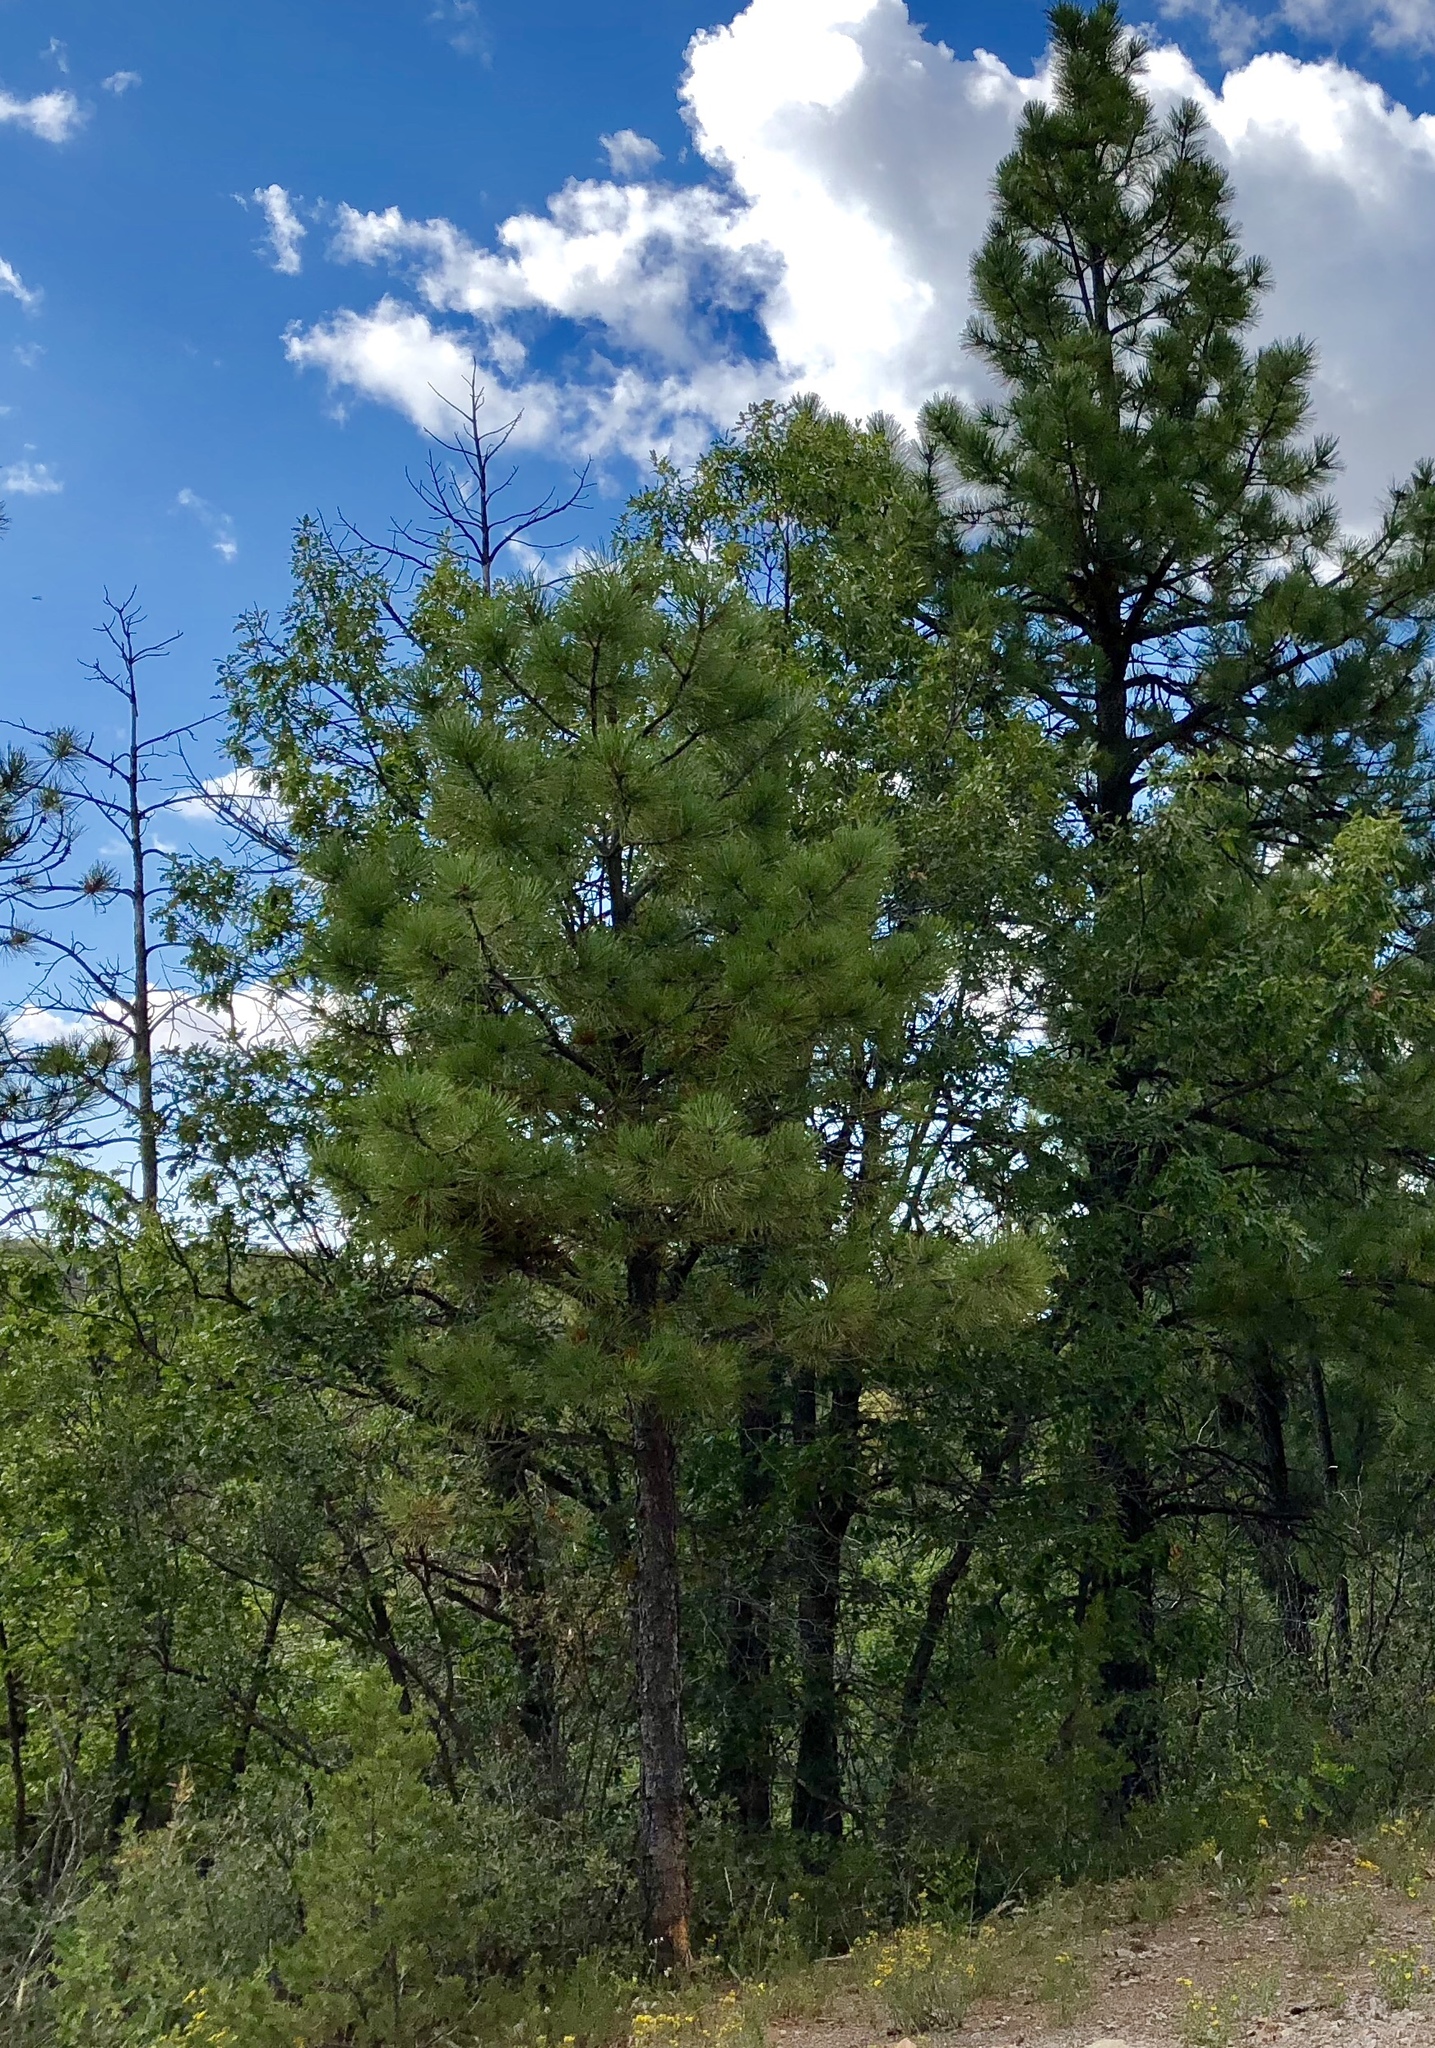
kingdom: Plantae
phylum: Tracheophyta
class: Pinopsida
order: Pinales
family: Pinaceae
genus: Pinus
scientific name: Pinus ponderosa
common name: Western yellow-pine
